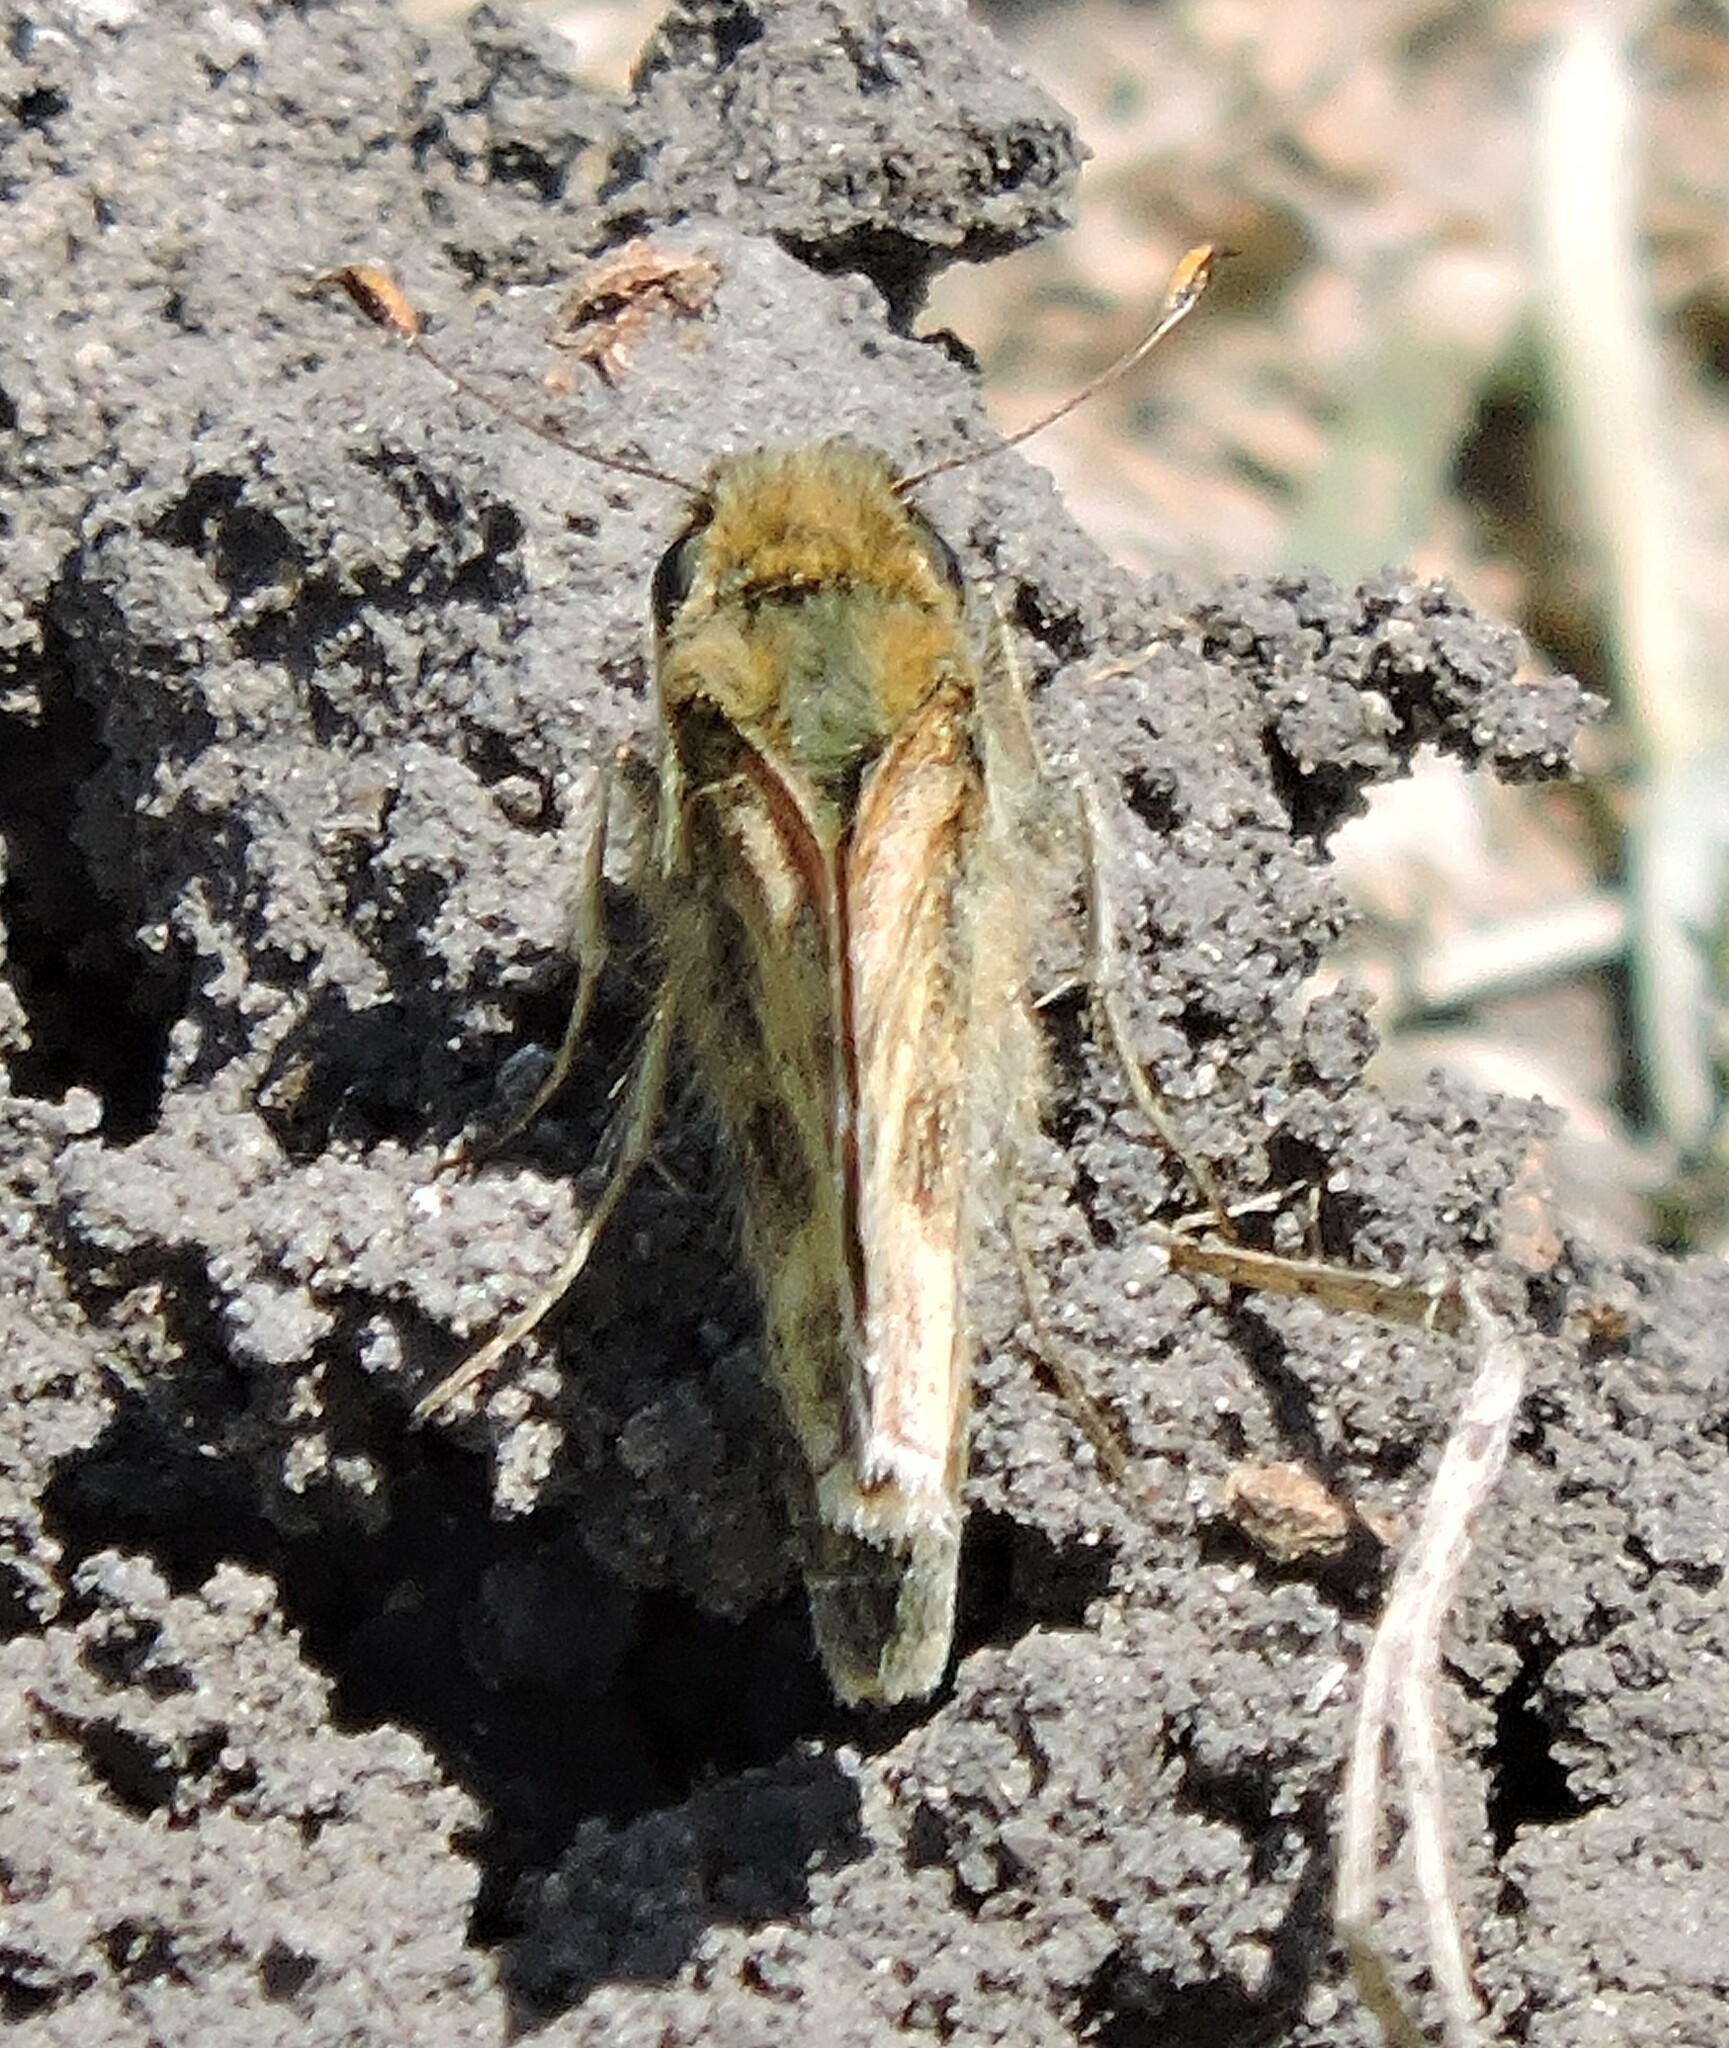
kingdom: Animalia
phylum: Arthropoda
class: Insecta
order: Lepidoptera
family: Hesperiidae
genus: Atalopedes
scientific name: Atalopedes campestris
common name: Sachem
